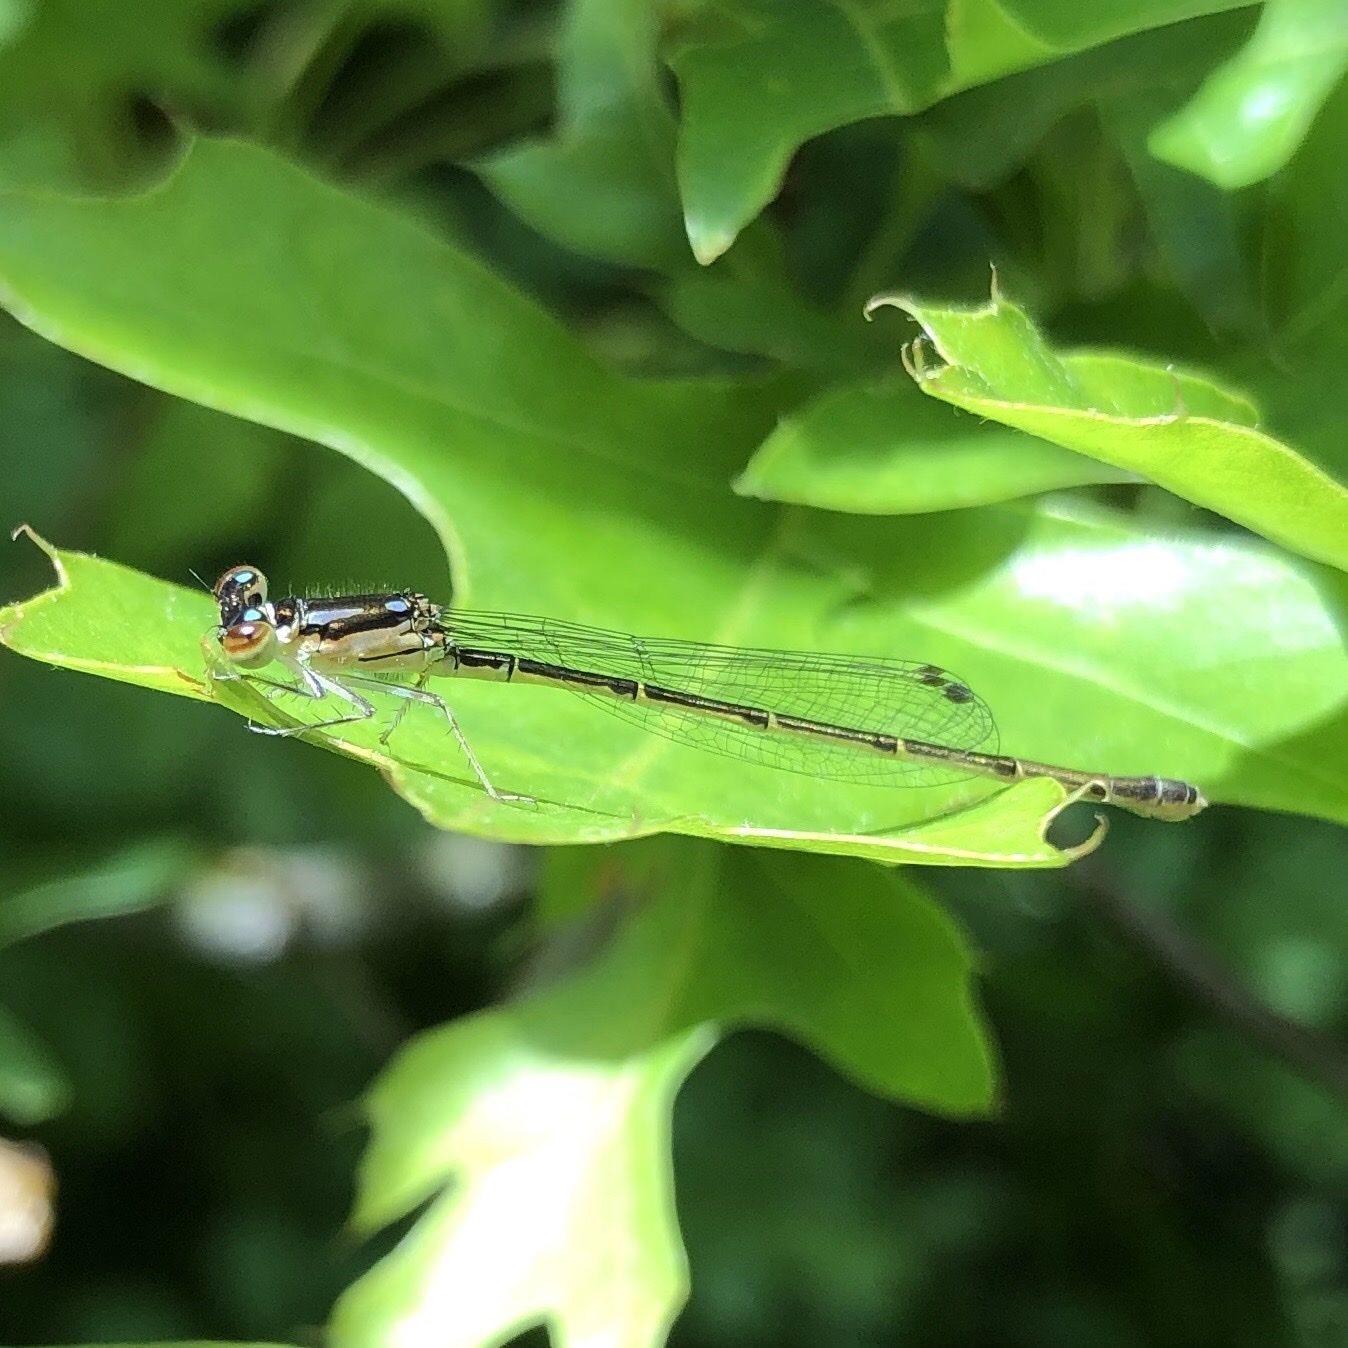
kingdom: Animalia
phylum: Arthropoda
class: Insecta
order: Odonata
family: Coenagrionidae
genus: Ischnura
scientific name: Ischnura posita
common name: Fragile forktail
